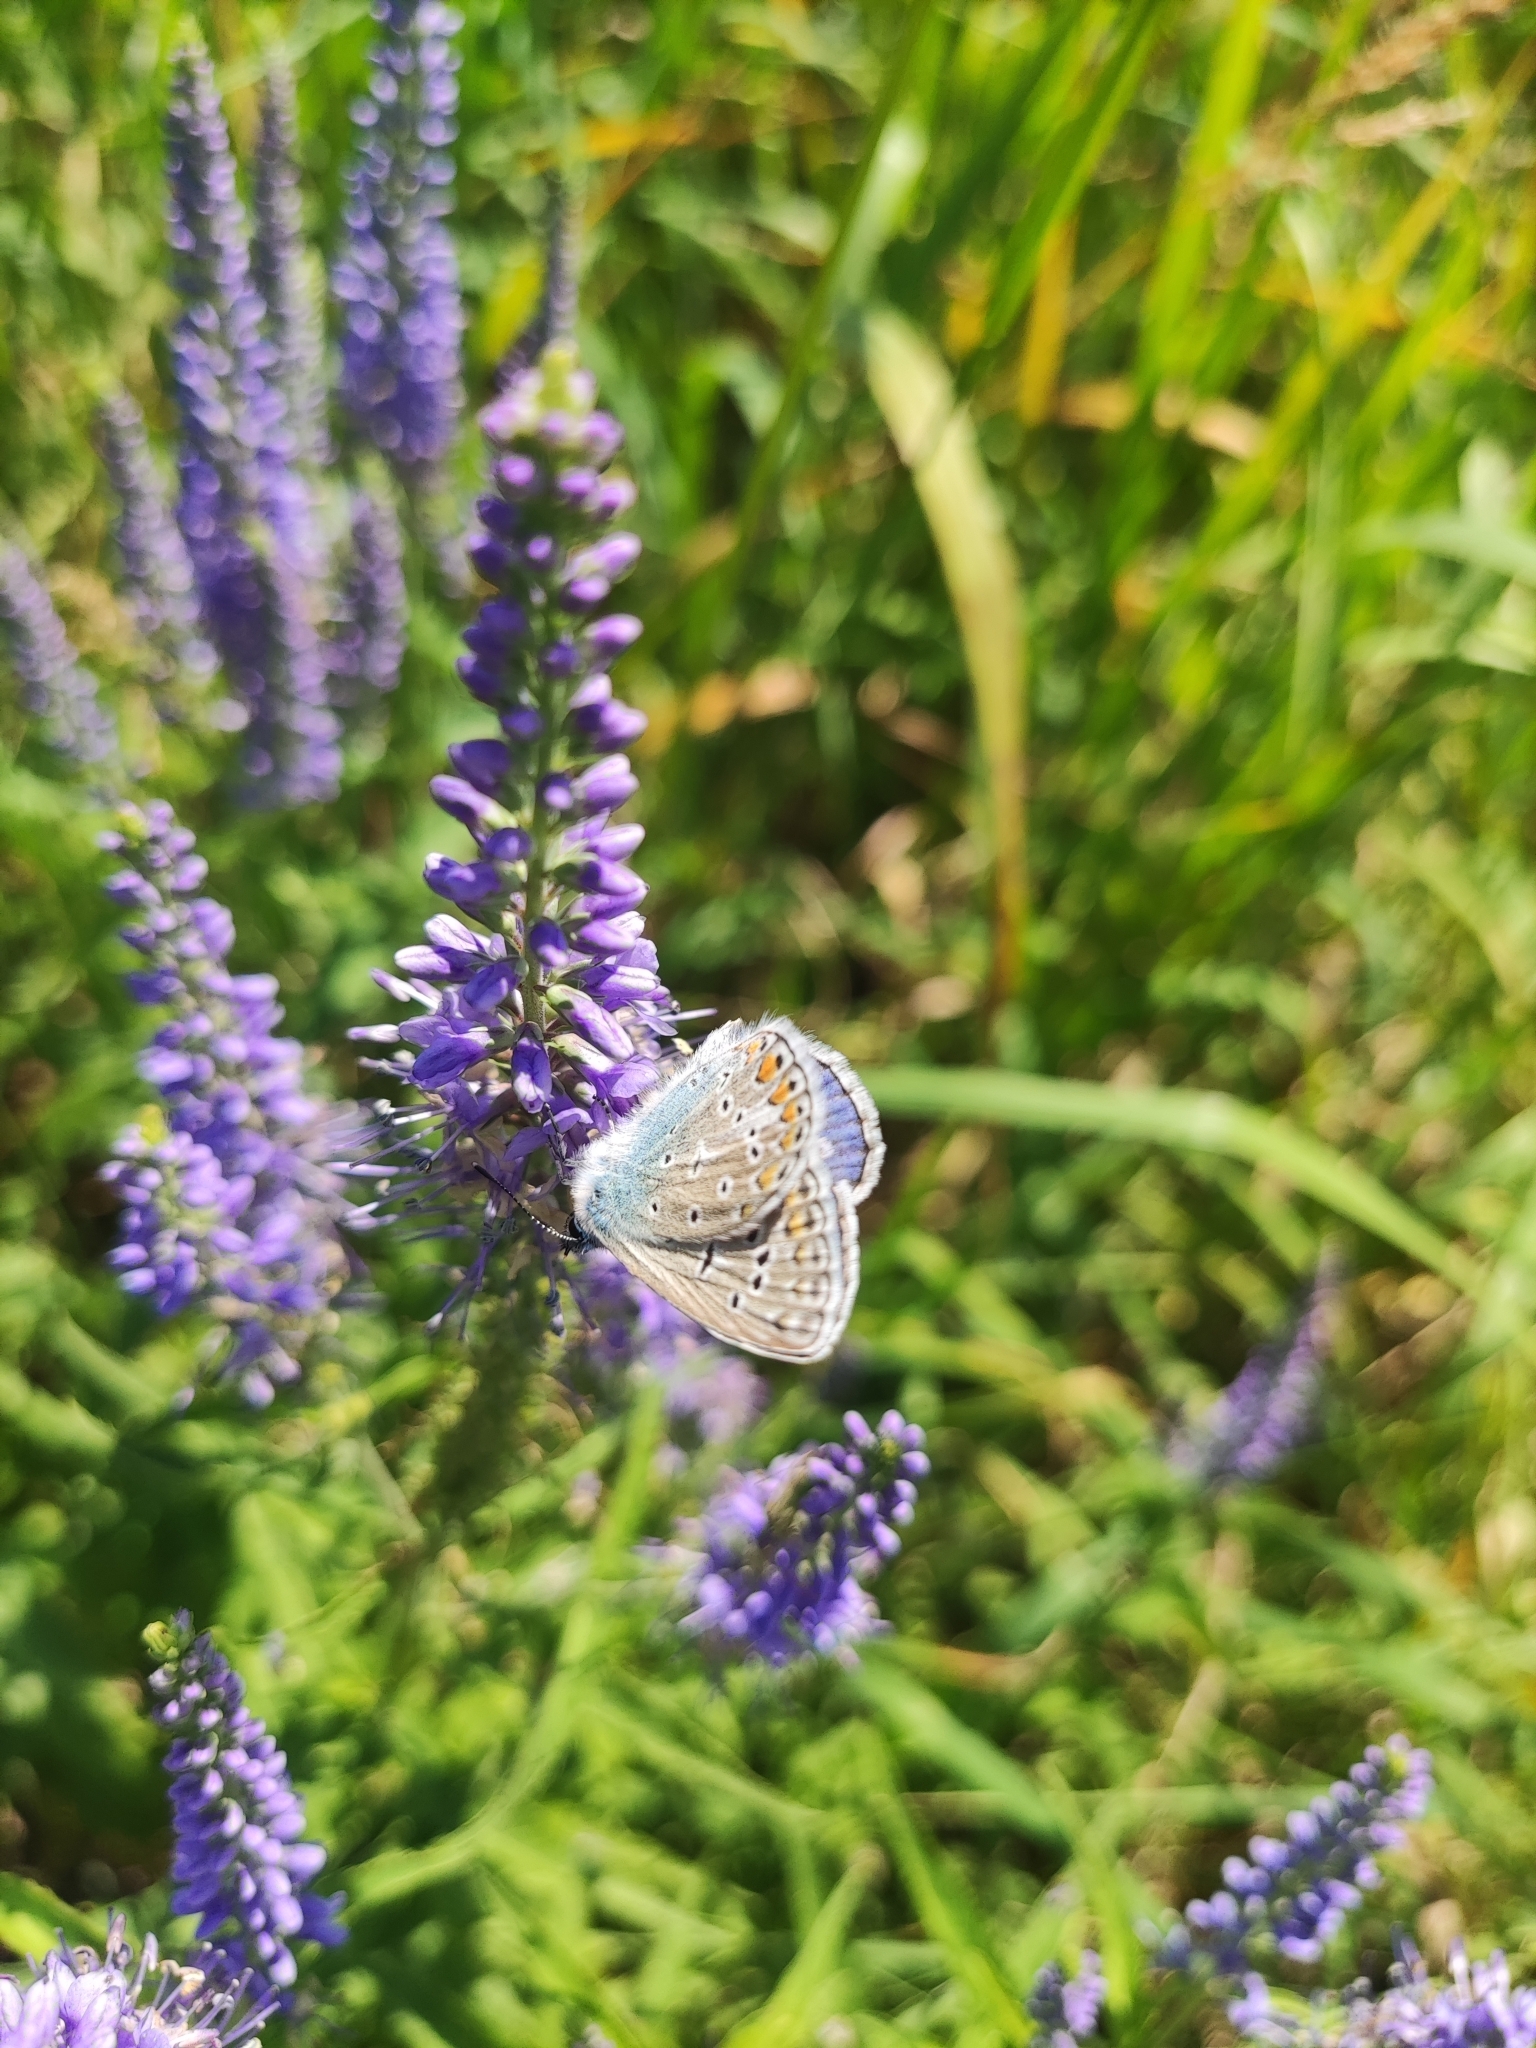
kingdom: Animalia
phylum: Arthropoda
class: Insecta
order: Lepidoptera
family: Lycaenidae
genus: Polyommatus
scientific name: Polyommatus icarus
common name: Common blue
